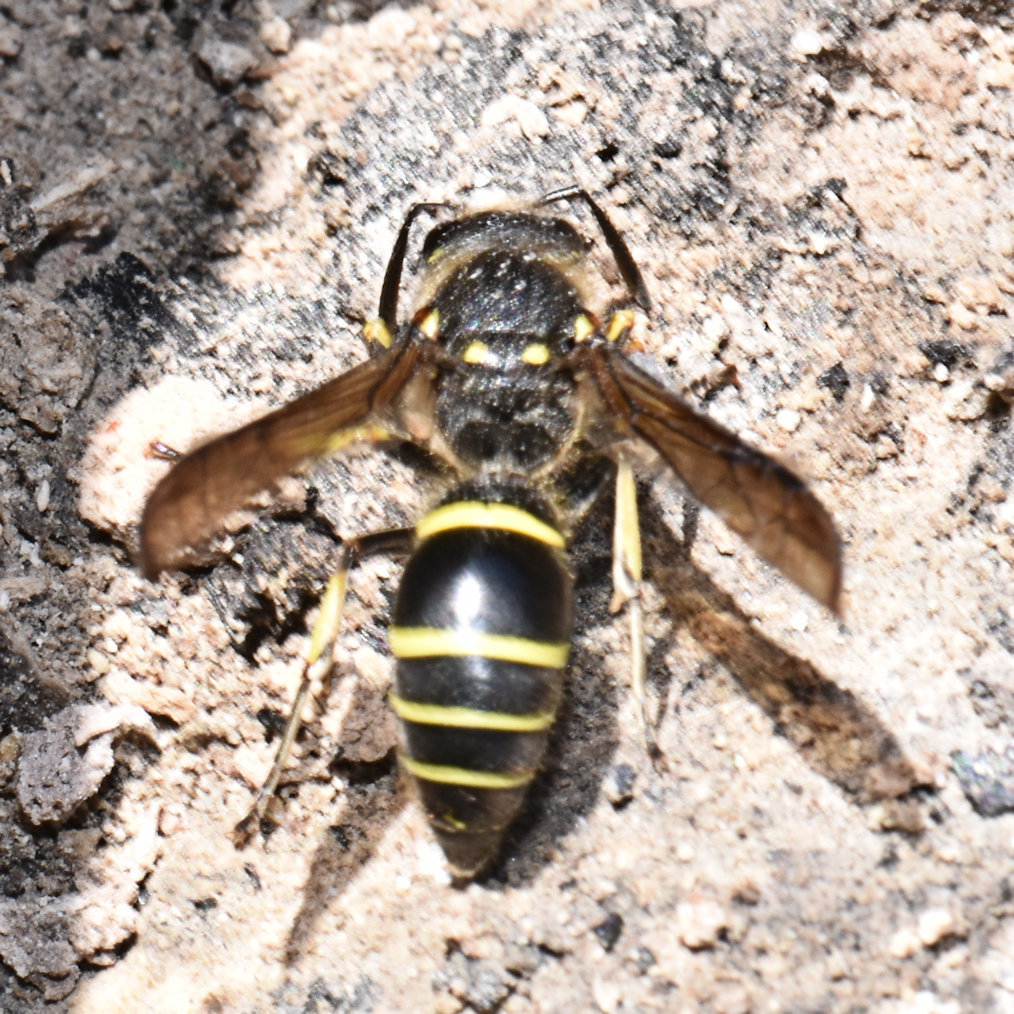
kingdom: Animalia
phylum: Arthropoda
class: Insecta
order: Hymenoptera
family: Vespidae
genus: Ancistrocerus
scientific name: Ancistrocerus
